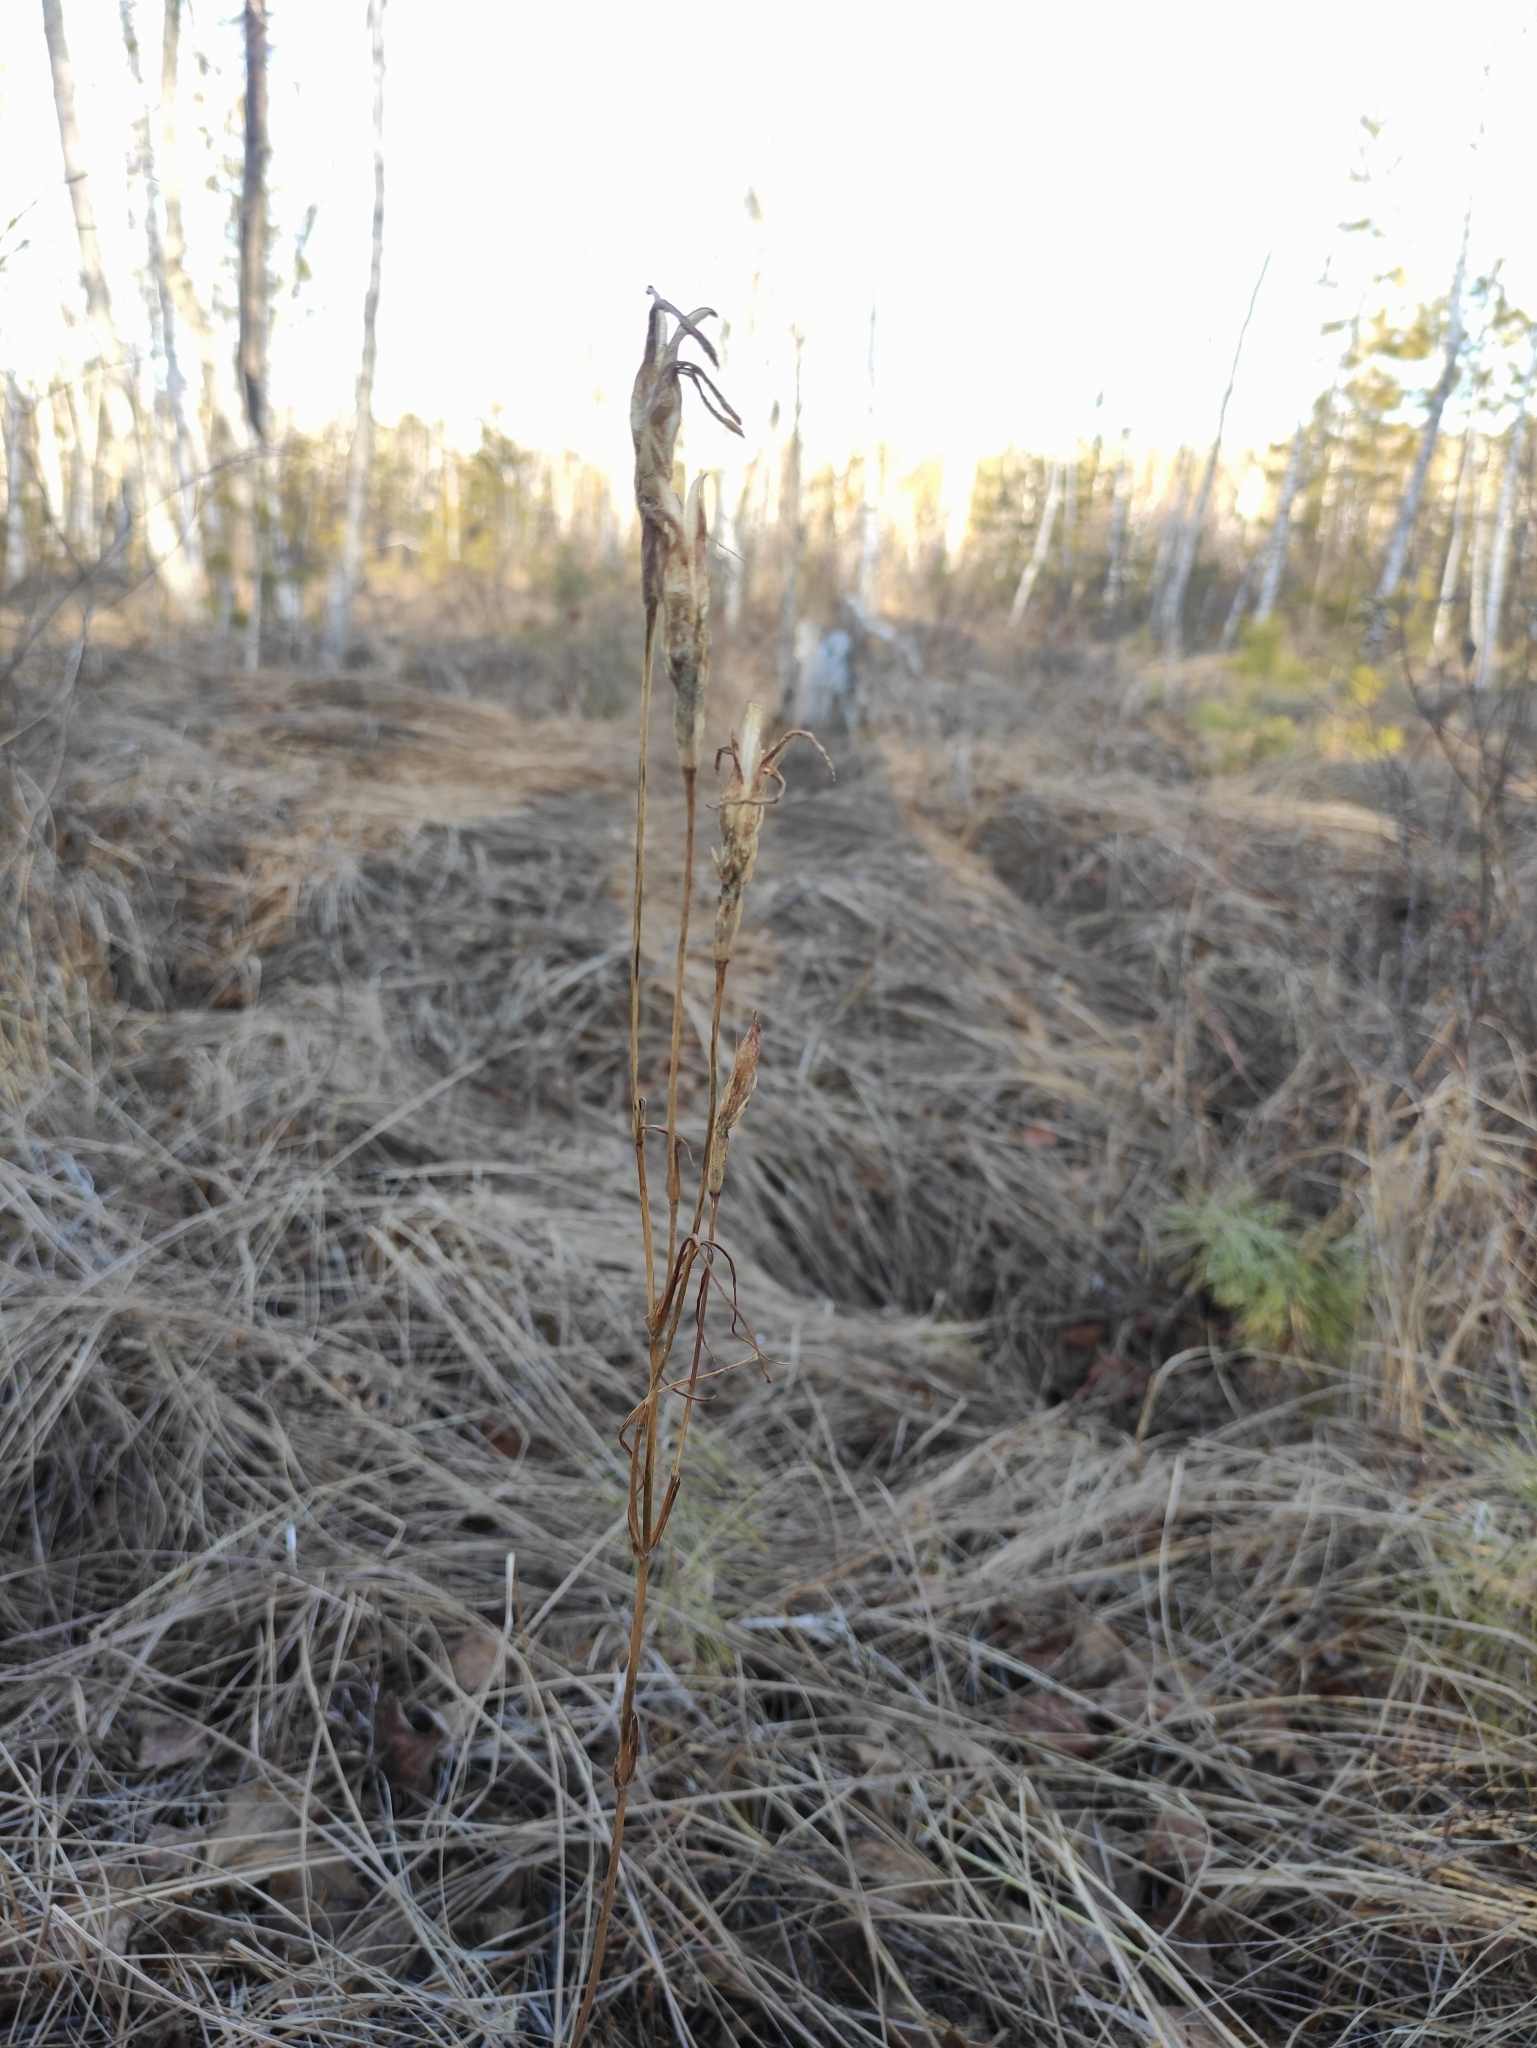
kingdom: Plantae
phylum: Tracheophyta
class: Magnoliopsida
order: Gentianales
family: Gentianaceae
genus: Gentianopsis
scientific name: Gentianopsis barbata
